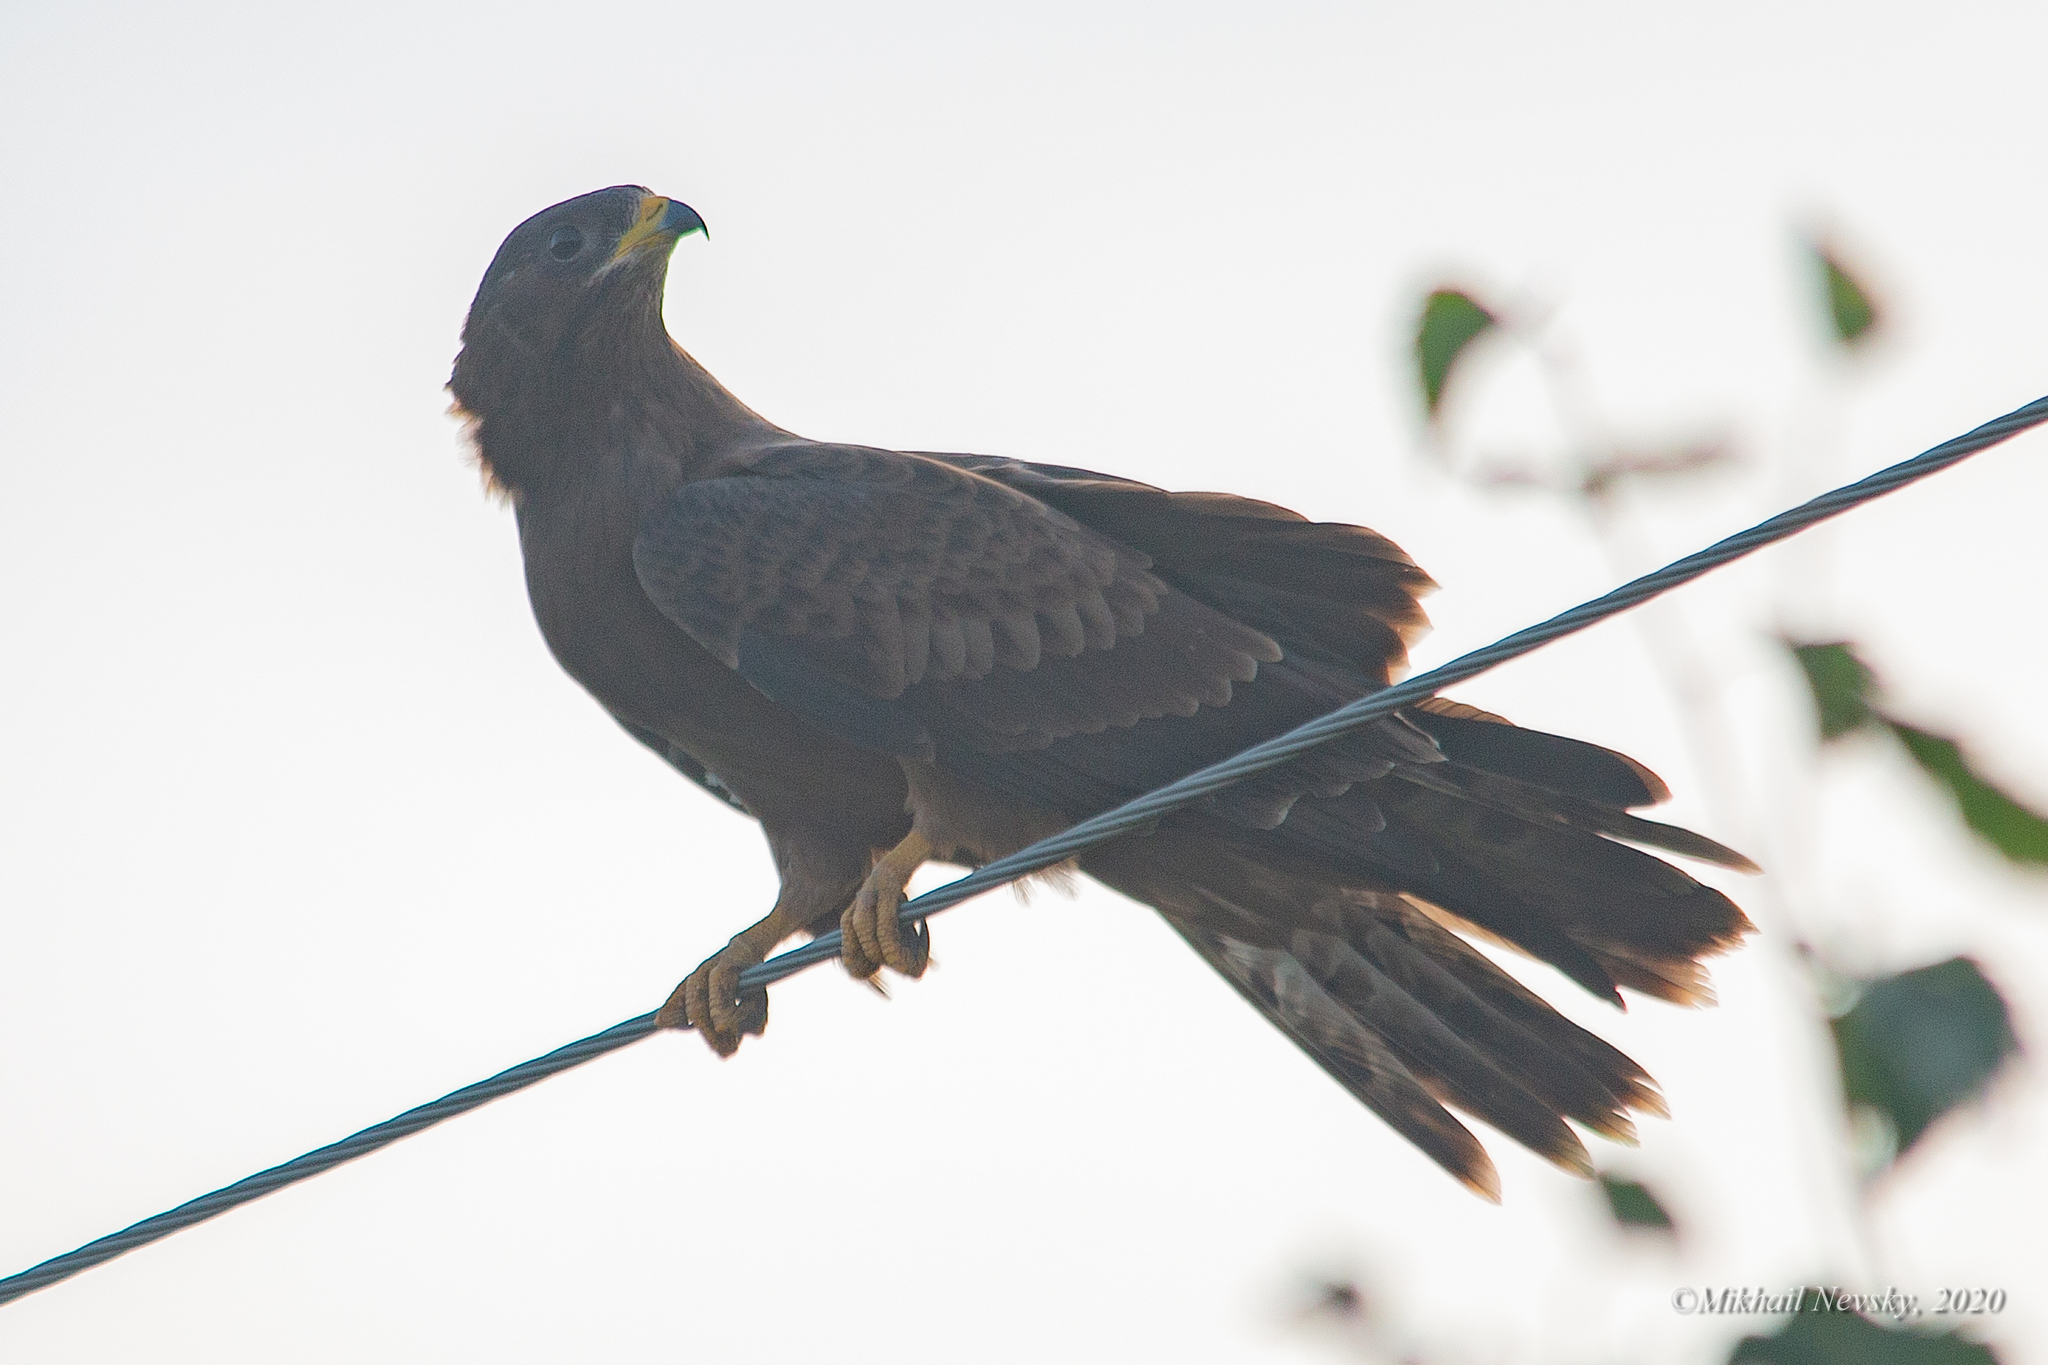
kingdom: Animalia
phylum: Chordata
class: Aves
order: Accipitriformes
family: Accipitridae
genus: Pernis
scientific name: Pernis apivorus
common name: European honey buzzard
